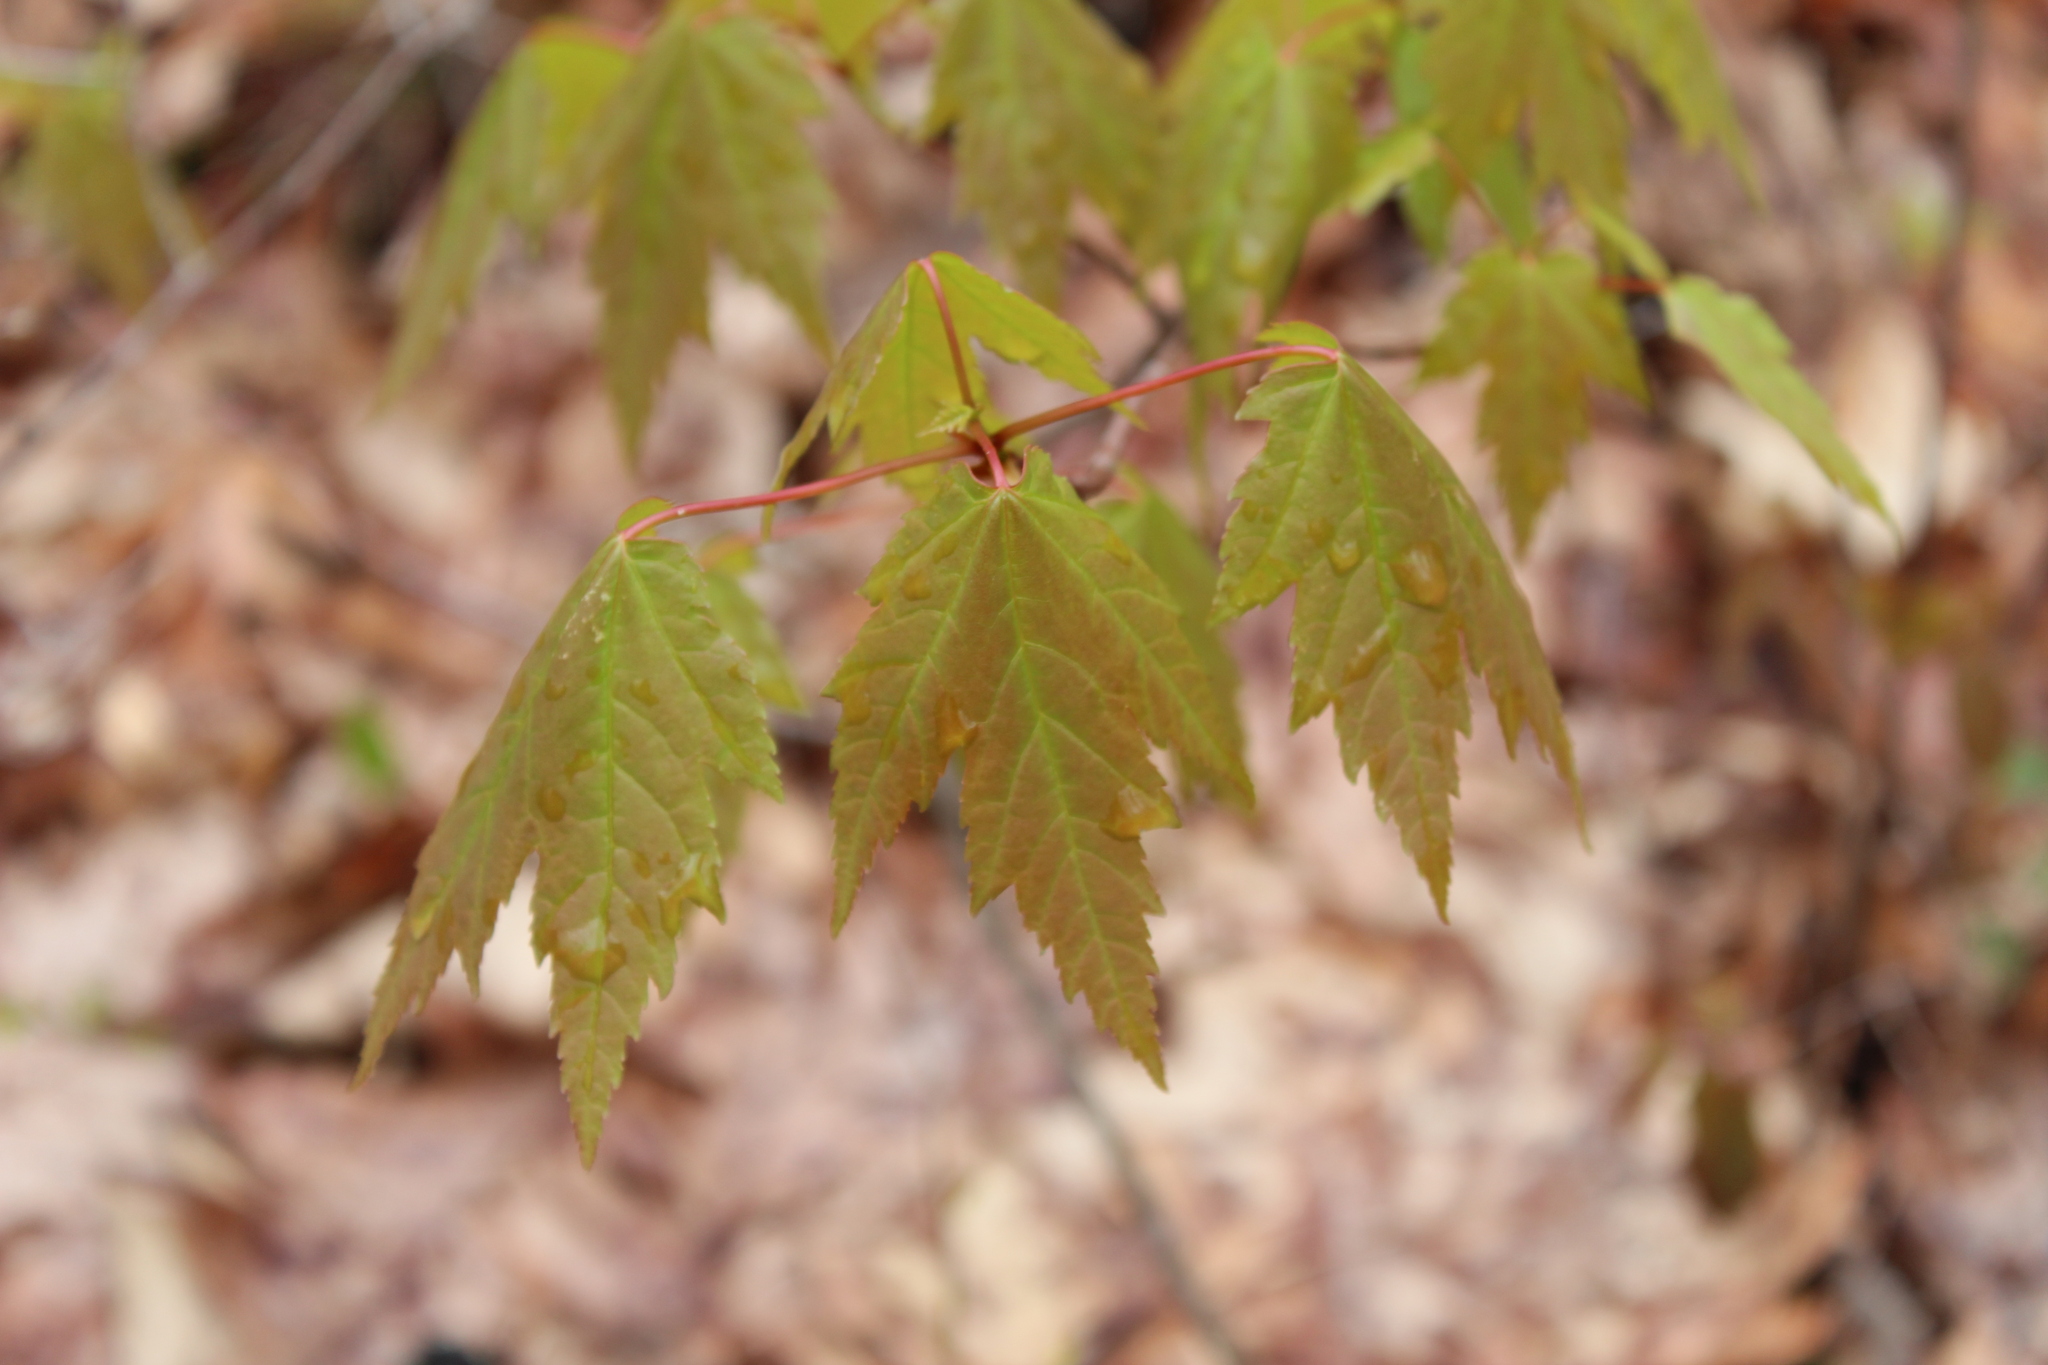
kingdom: Plantae
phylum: Tracheophyta
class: Magnoliopsida
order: Sapindales
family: Sapindaceae
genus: Acer
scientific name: Acer rubrum
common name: Red maple
